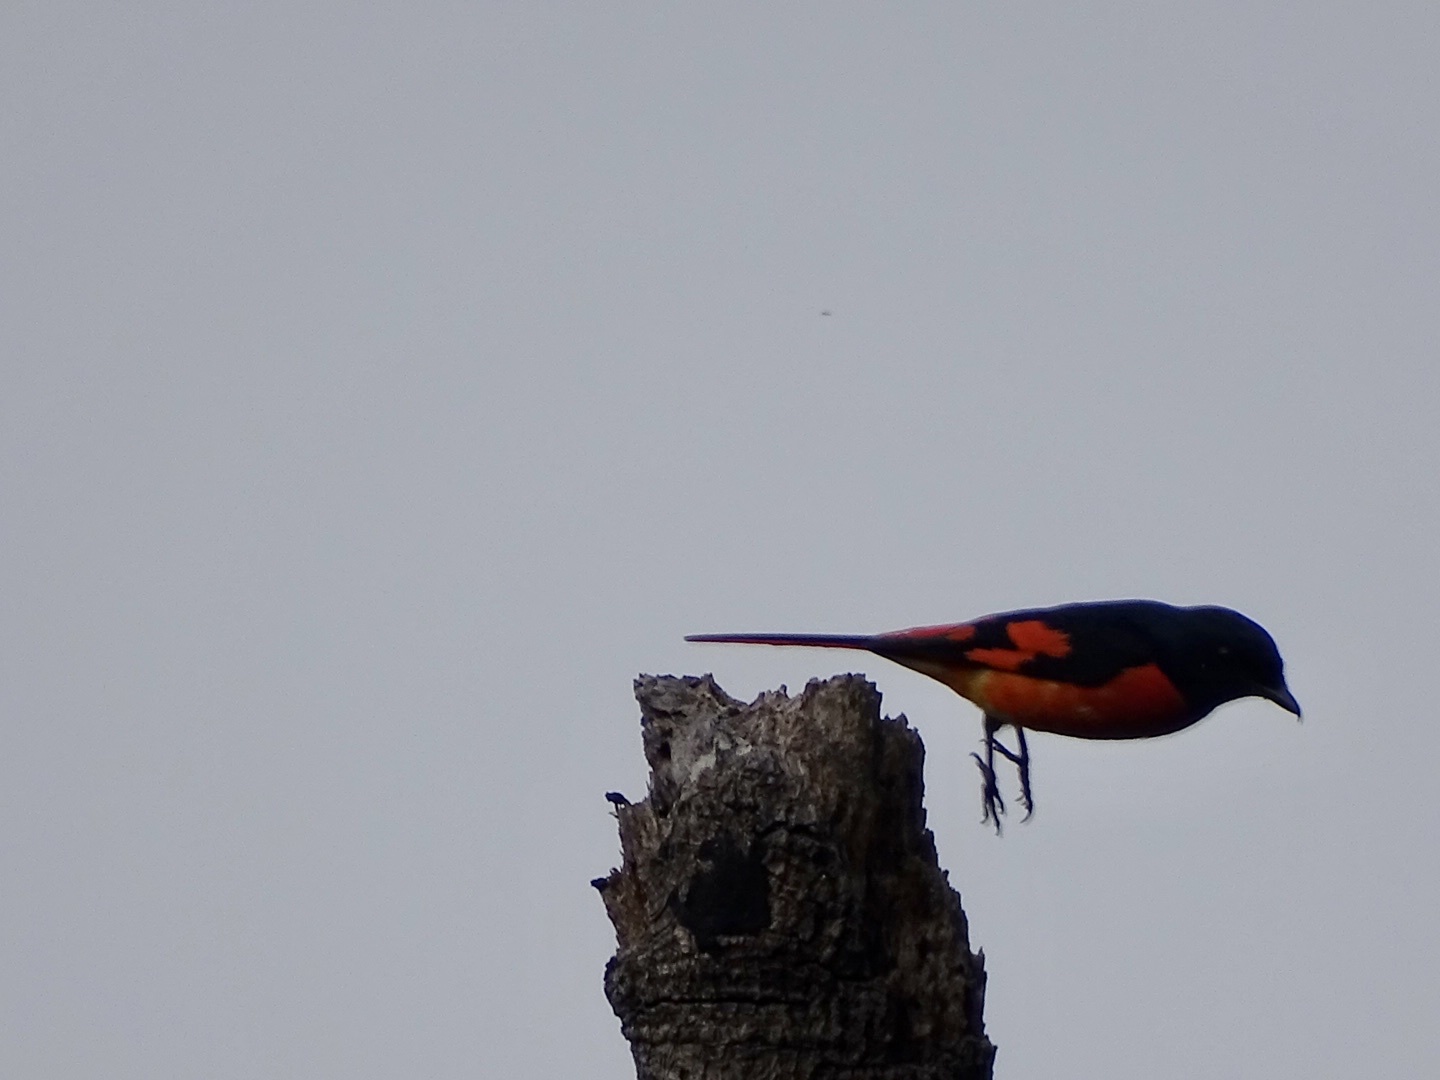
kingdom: Animalia
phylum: Chordata
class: Aves
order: Passeriformes
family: Campephagidae
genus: Pericrocotus
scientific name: Pericrocotus speciosus
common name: Scarlet minivet
